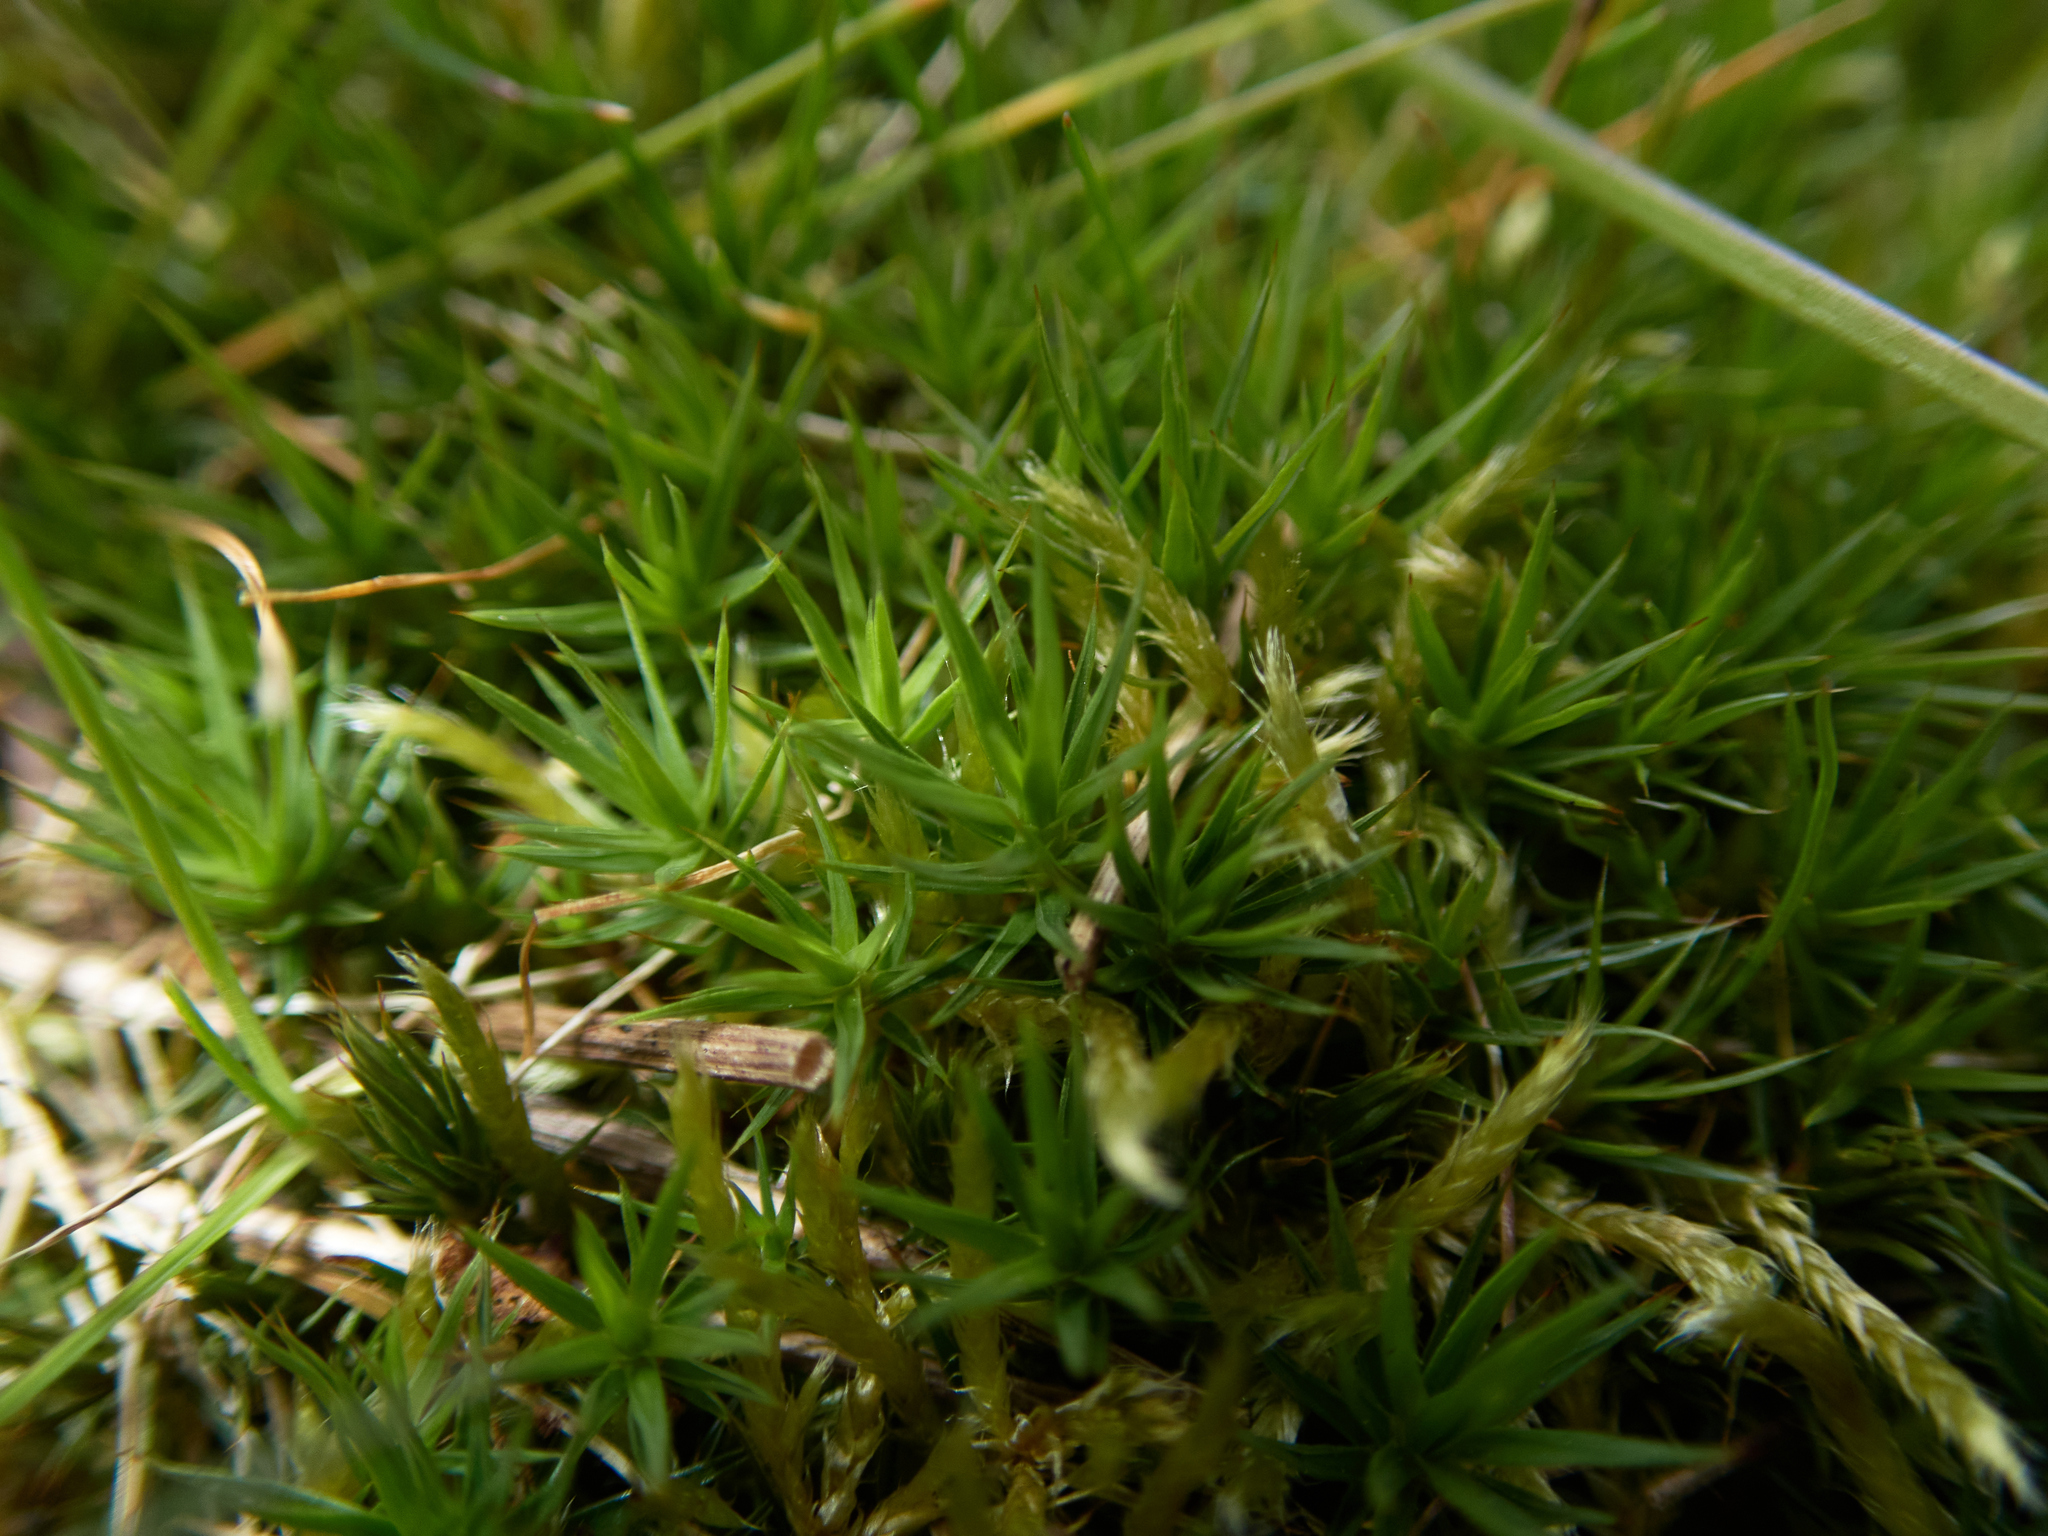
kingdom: Plantae
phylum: Bryophyta
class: Polytrichopsida
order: Polytrichales
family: Polytrichaceae
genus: Polytrichum
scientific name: Polytrichum juniperinum
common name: Juniper haircap moss
